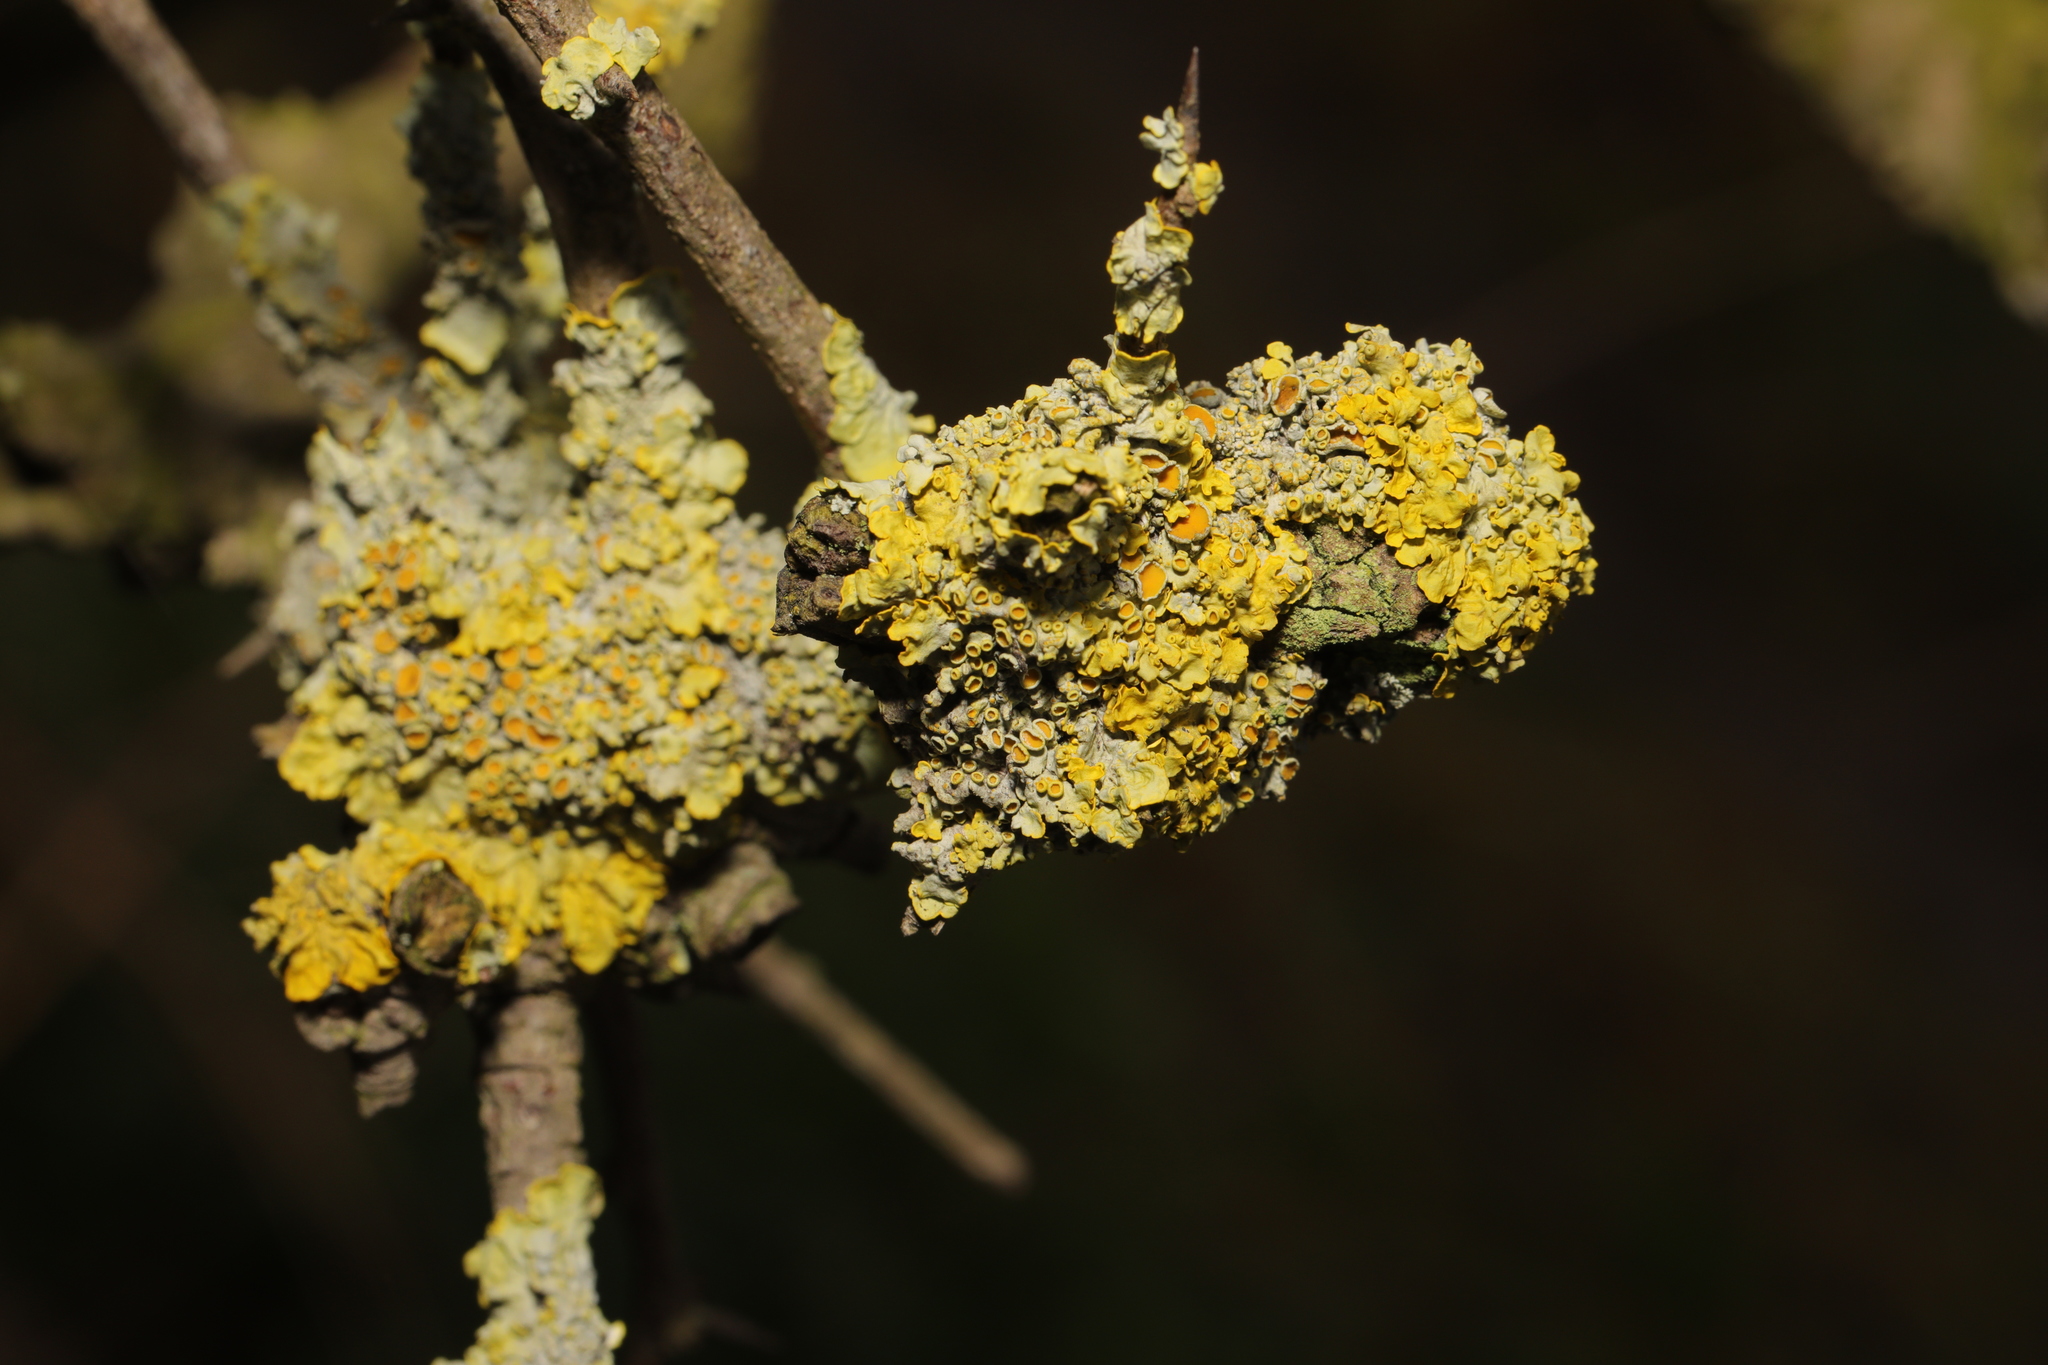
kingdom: Fungi
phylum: Ascomycota
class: Lecanoromycetes
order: Teloschistales
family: Teloschistaceae
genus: Xanthoria
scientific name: Xanthoria parietina
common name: Common orange lichen
